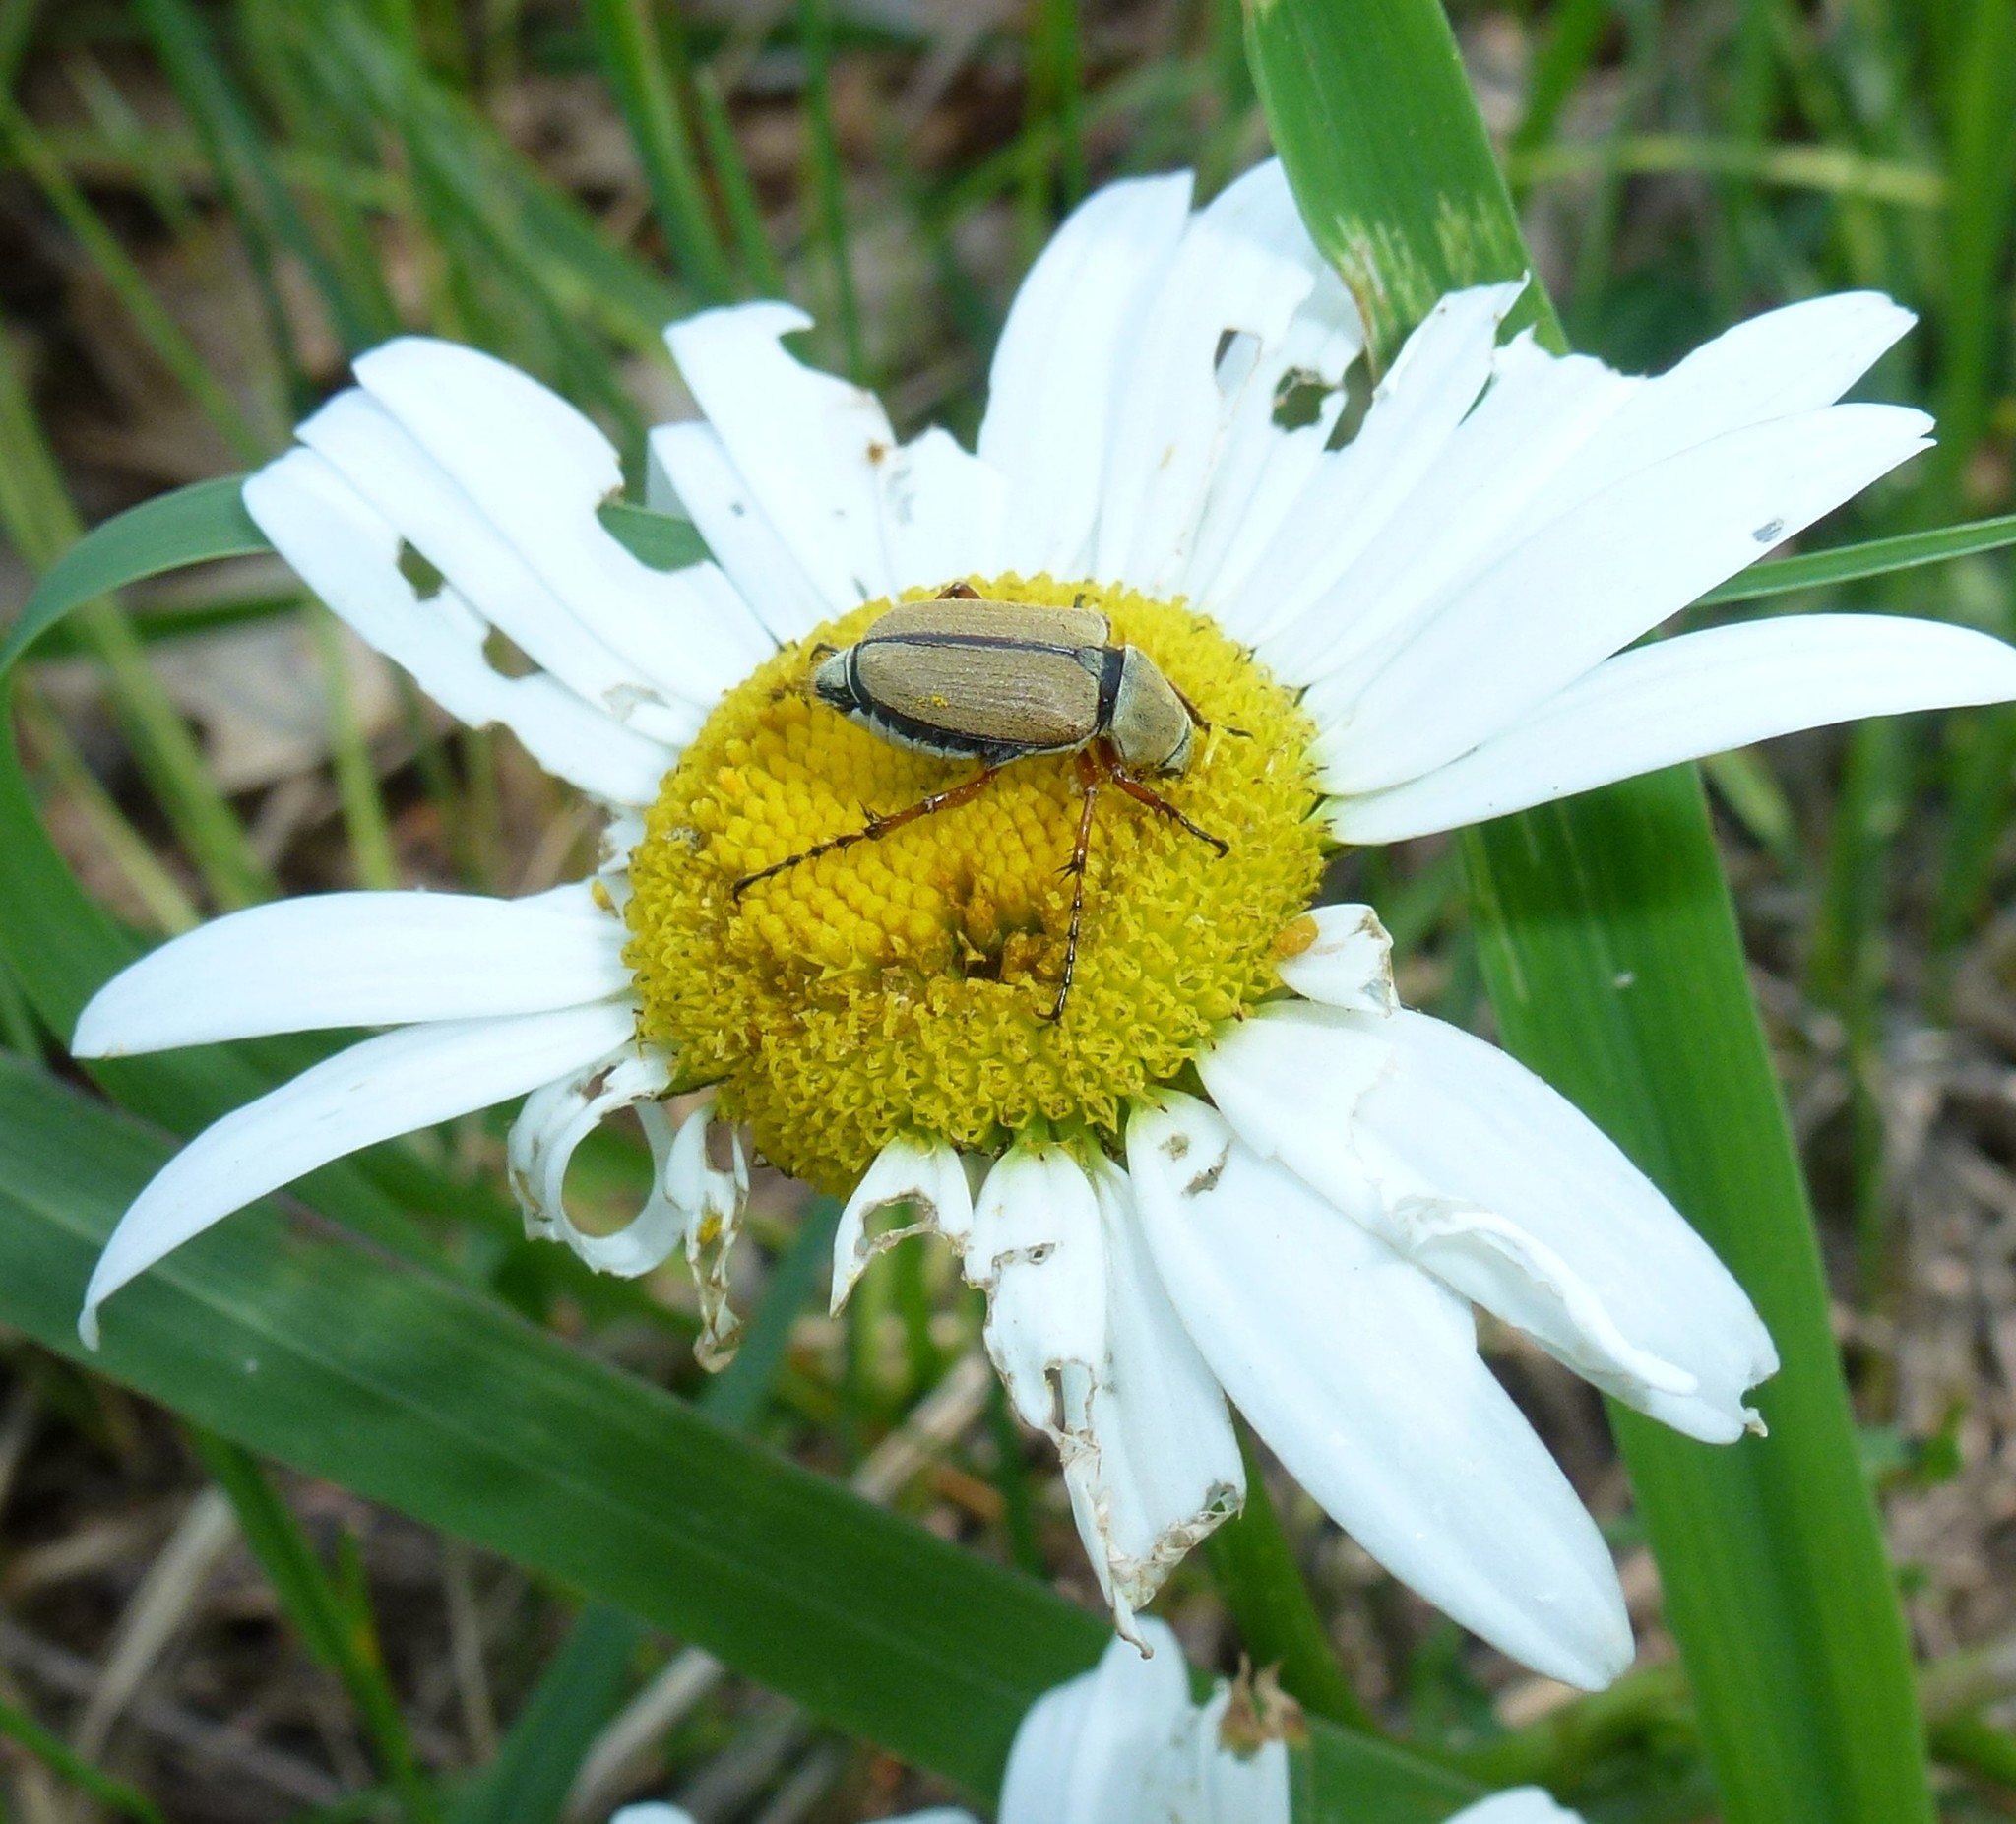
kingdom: Animalia
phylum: Arthropoda
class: Insecta
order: Coleoptera
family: Scarabaeidae
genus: Macrodactylus
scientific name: Macrodactylus subspinosus
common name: American rose chafer
